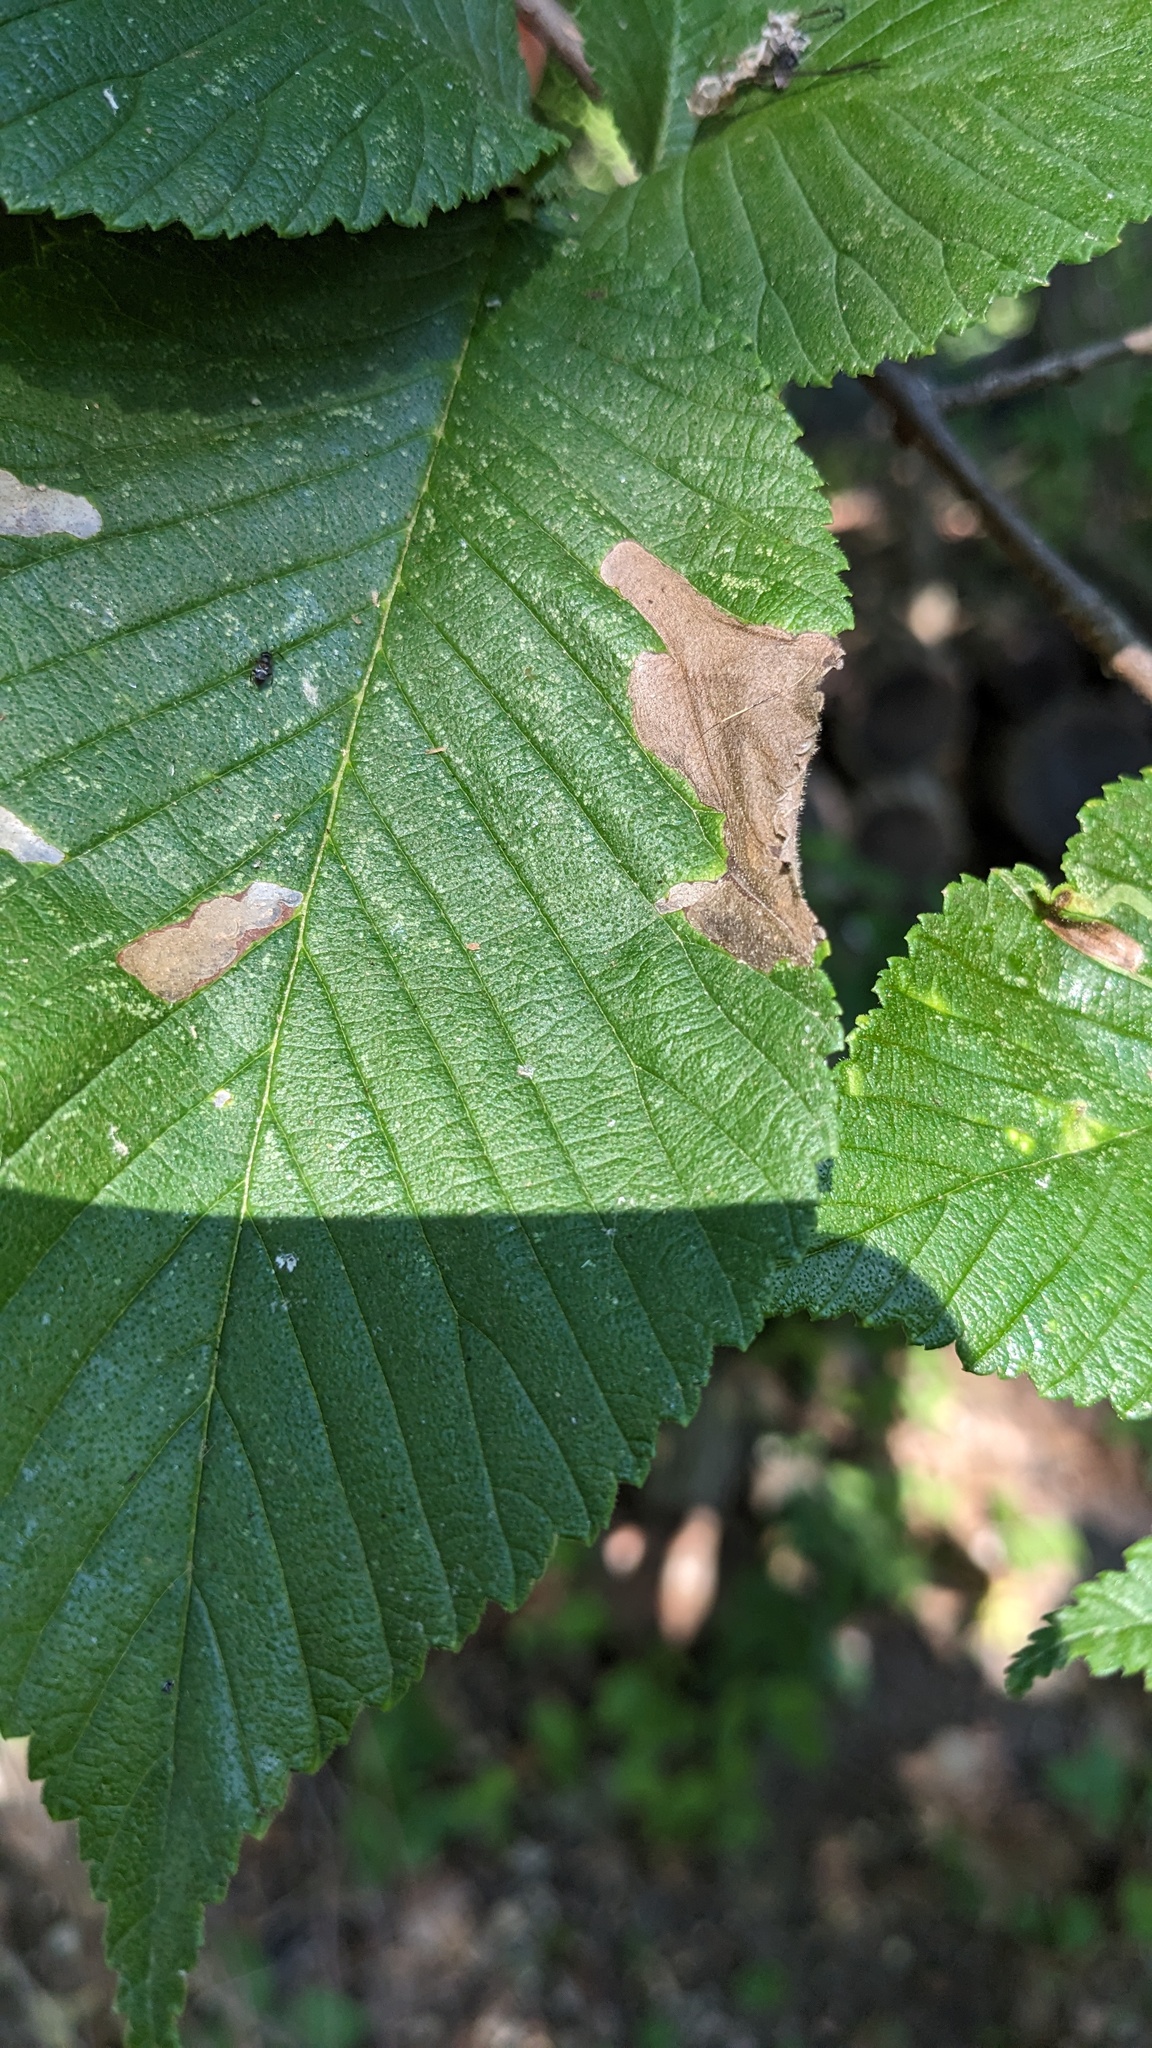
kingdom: Animalia
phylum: Arthropoda
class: Insecta
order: Hymenoptera
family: Tenthredinidae
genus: Fenusa
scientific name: Fenusa ulmi
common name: Elm leafminer
